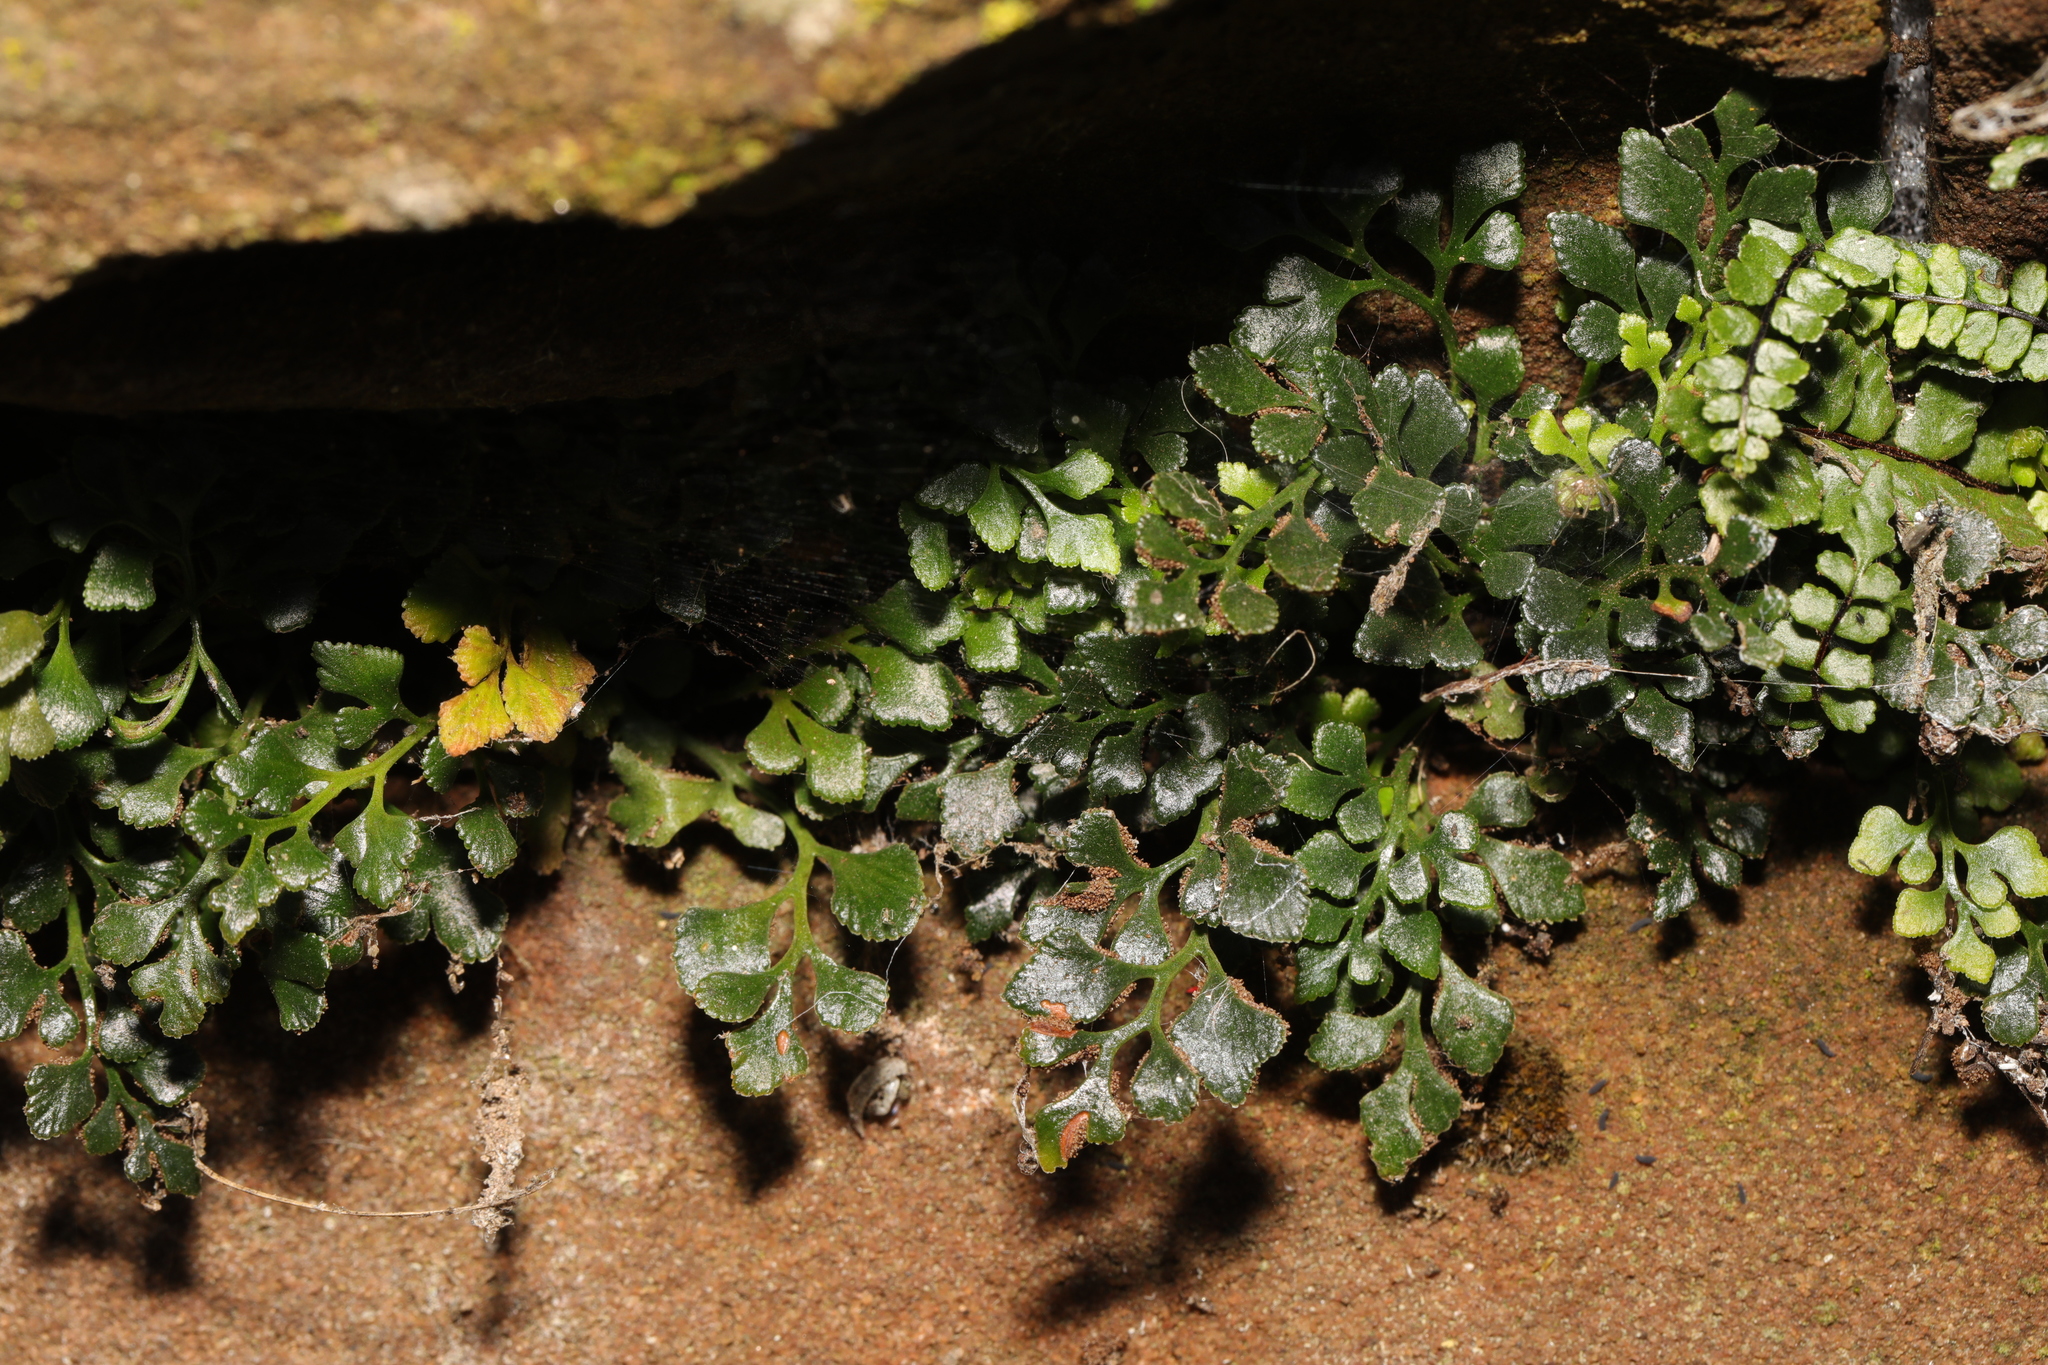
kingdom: Plantae
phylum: Tracheophyta
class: Polypodiopsida
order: Polypodiales
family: Aspleniaceae
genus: Asplenium
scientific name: Asplenium ruta-muraria
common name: Wall-rue
